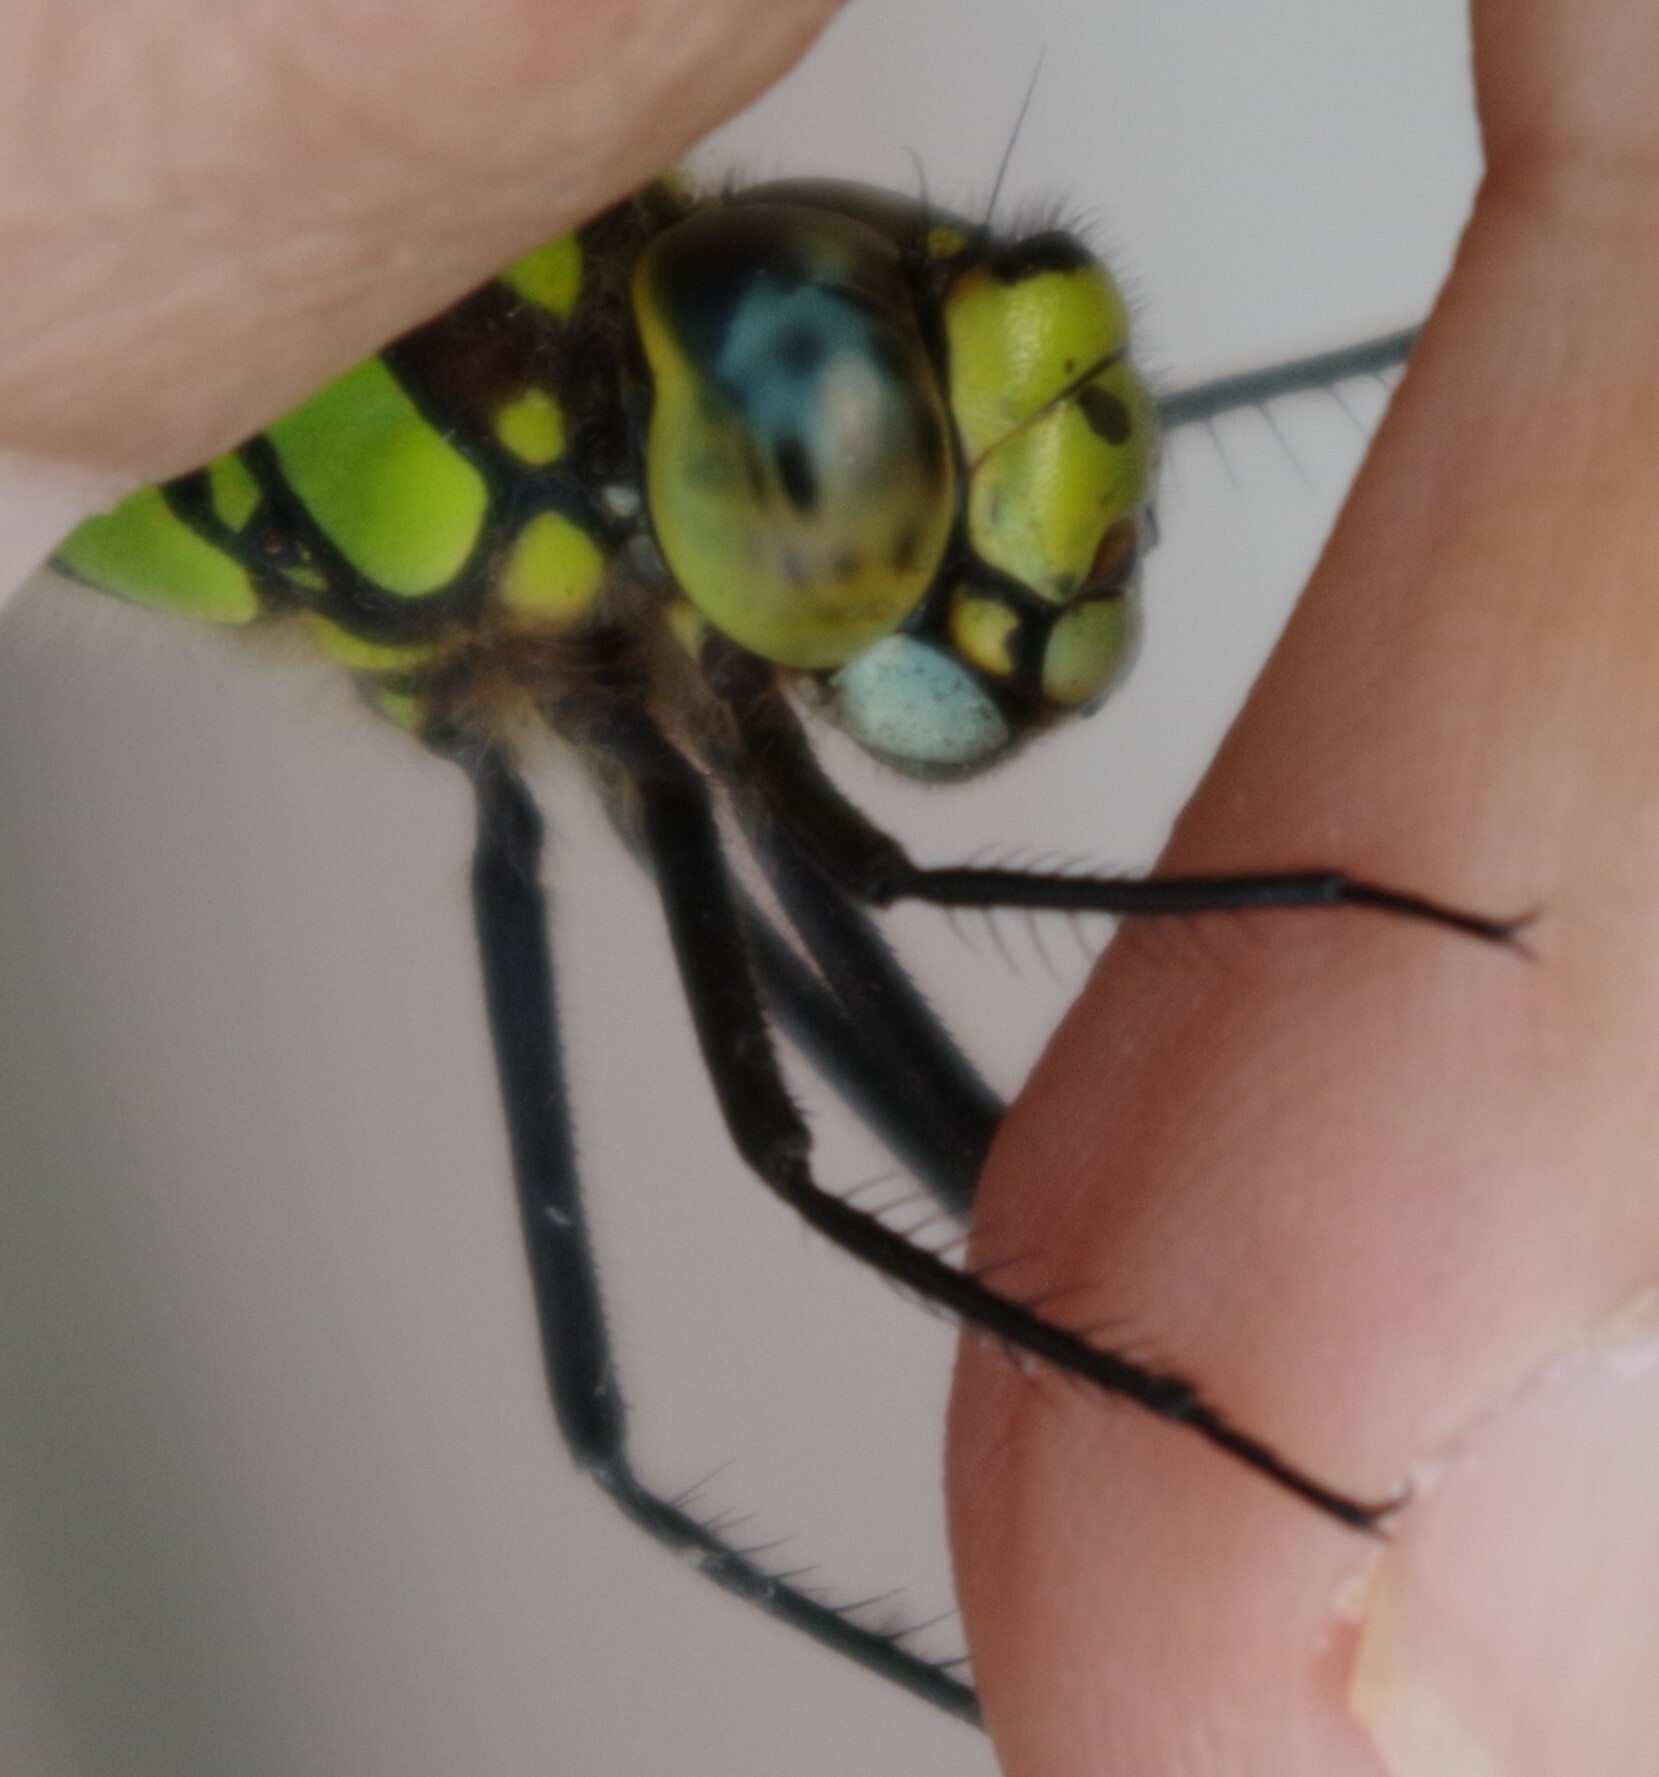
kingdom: Animalia
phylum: Arthropoda
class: Insecta
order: Odonata
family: Aeshnidae
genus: Aeshna
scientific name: Aeshna cyanea
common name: Southern hawker
